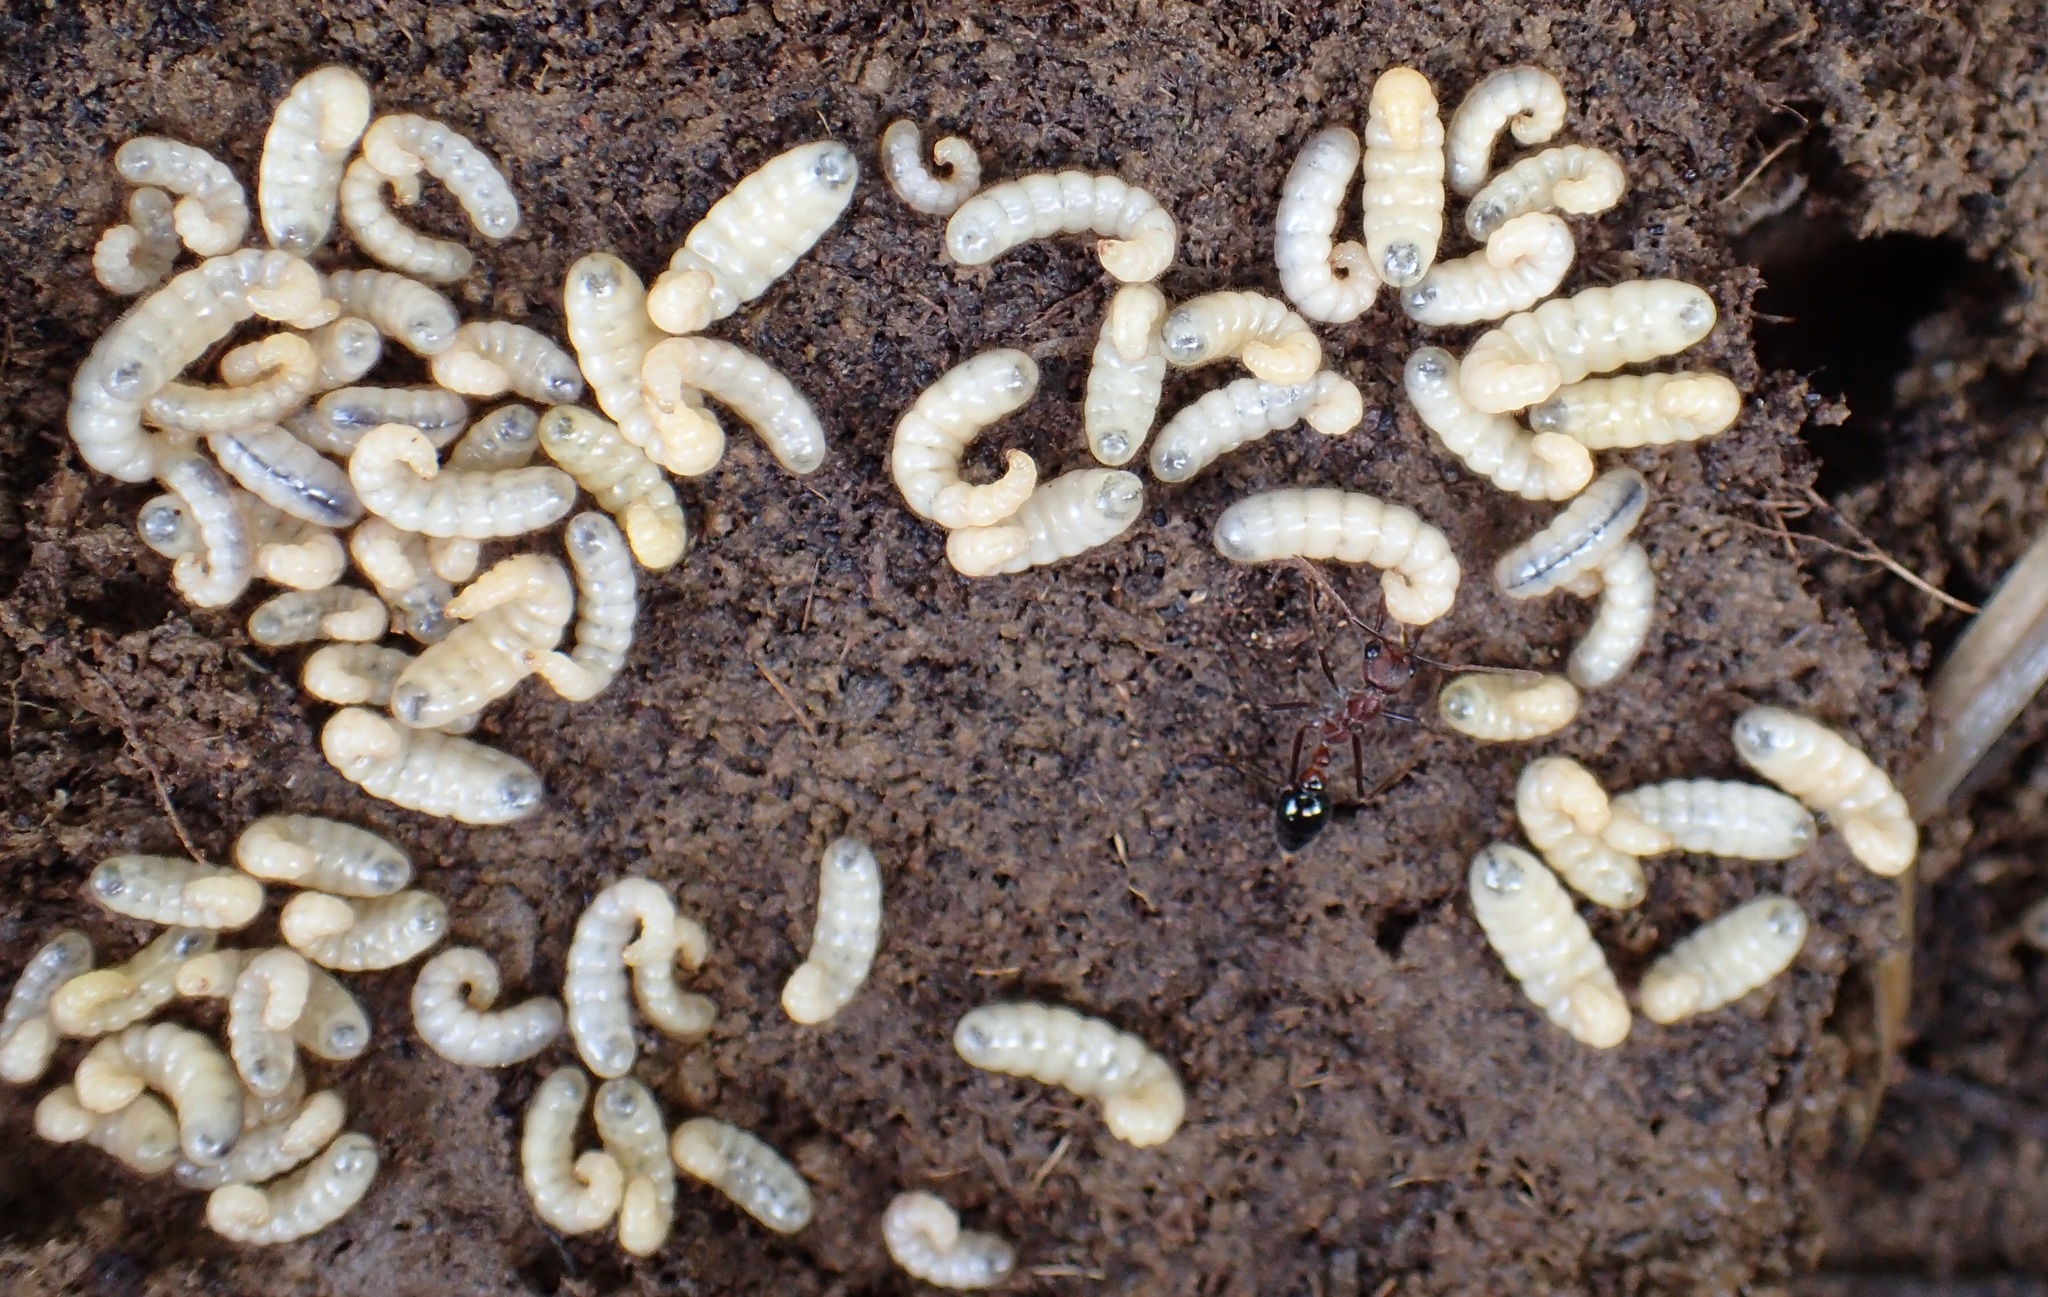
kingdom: Animalia
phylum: Arthropoda
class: Insecta
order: Hymenoptera
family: Formicidae
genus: Myrmecia
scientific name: Myrmecia forficata
